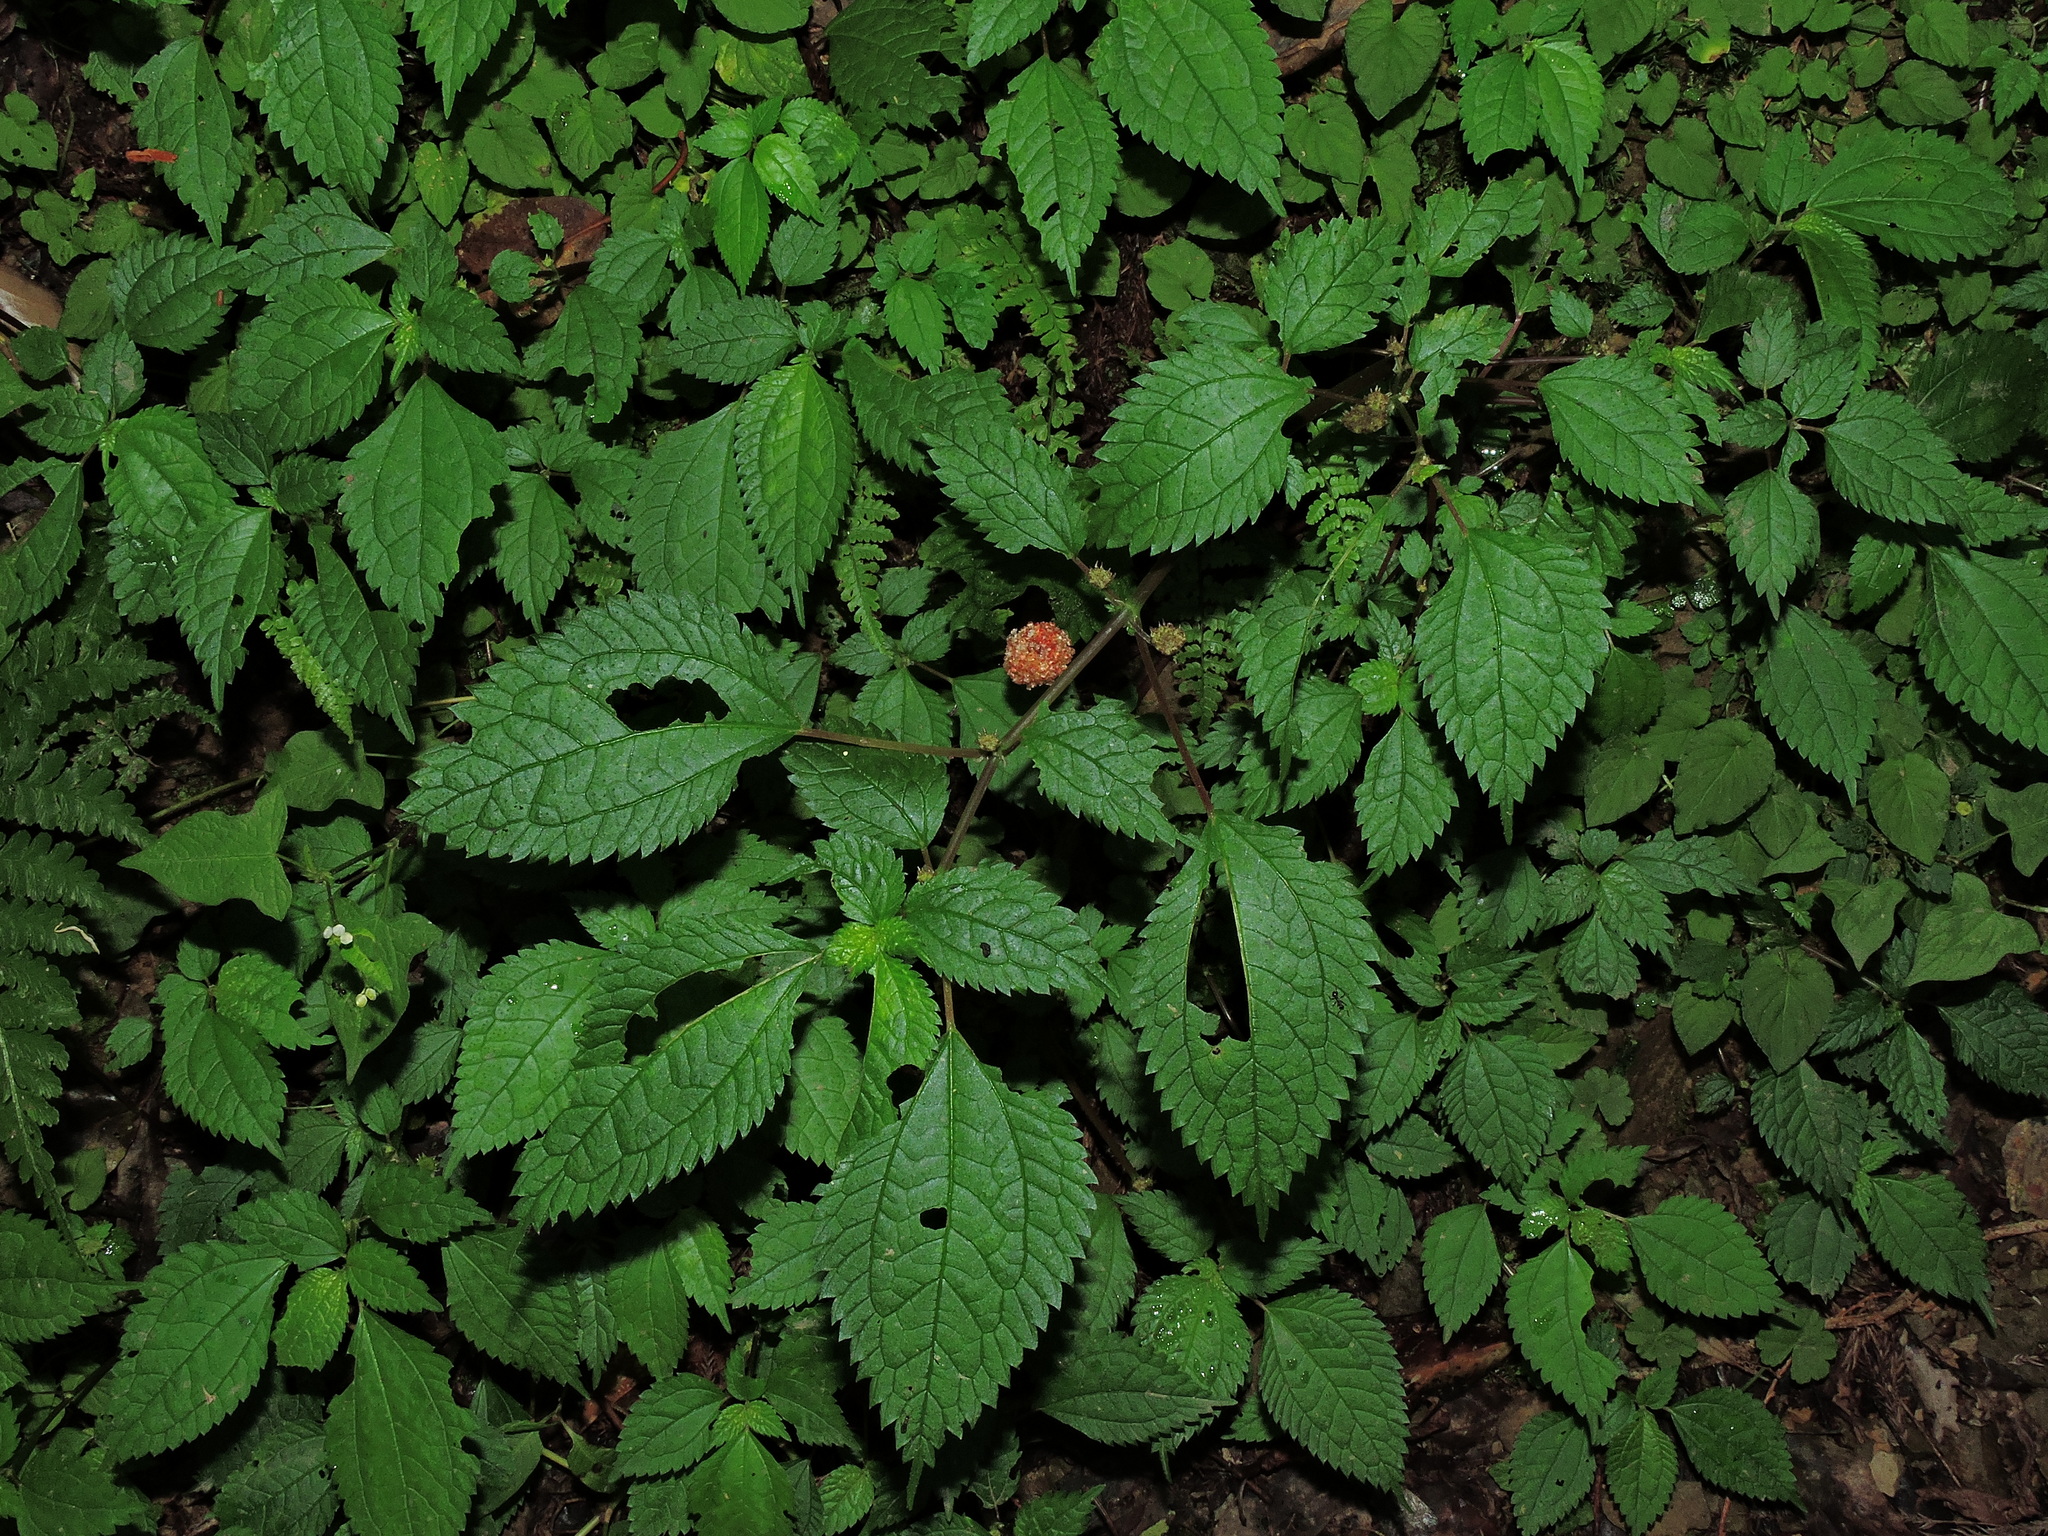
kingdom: Plantae
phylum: Tracheophyta
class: Magnoliopsida
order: Rosales
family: Urticaceae
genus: Lecanthus
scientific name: Lecanthus peduncularis
